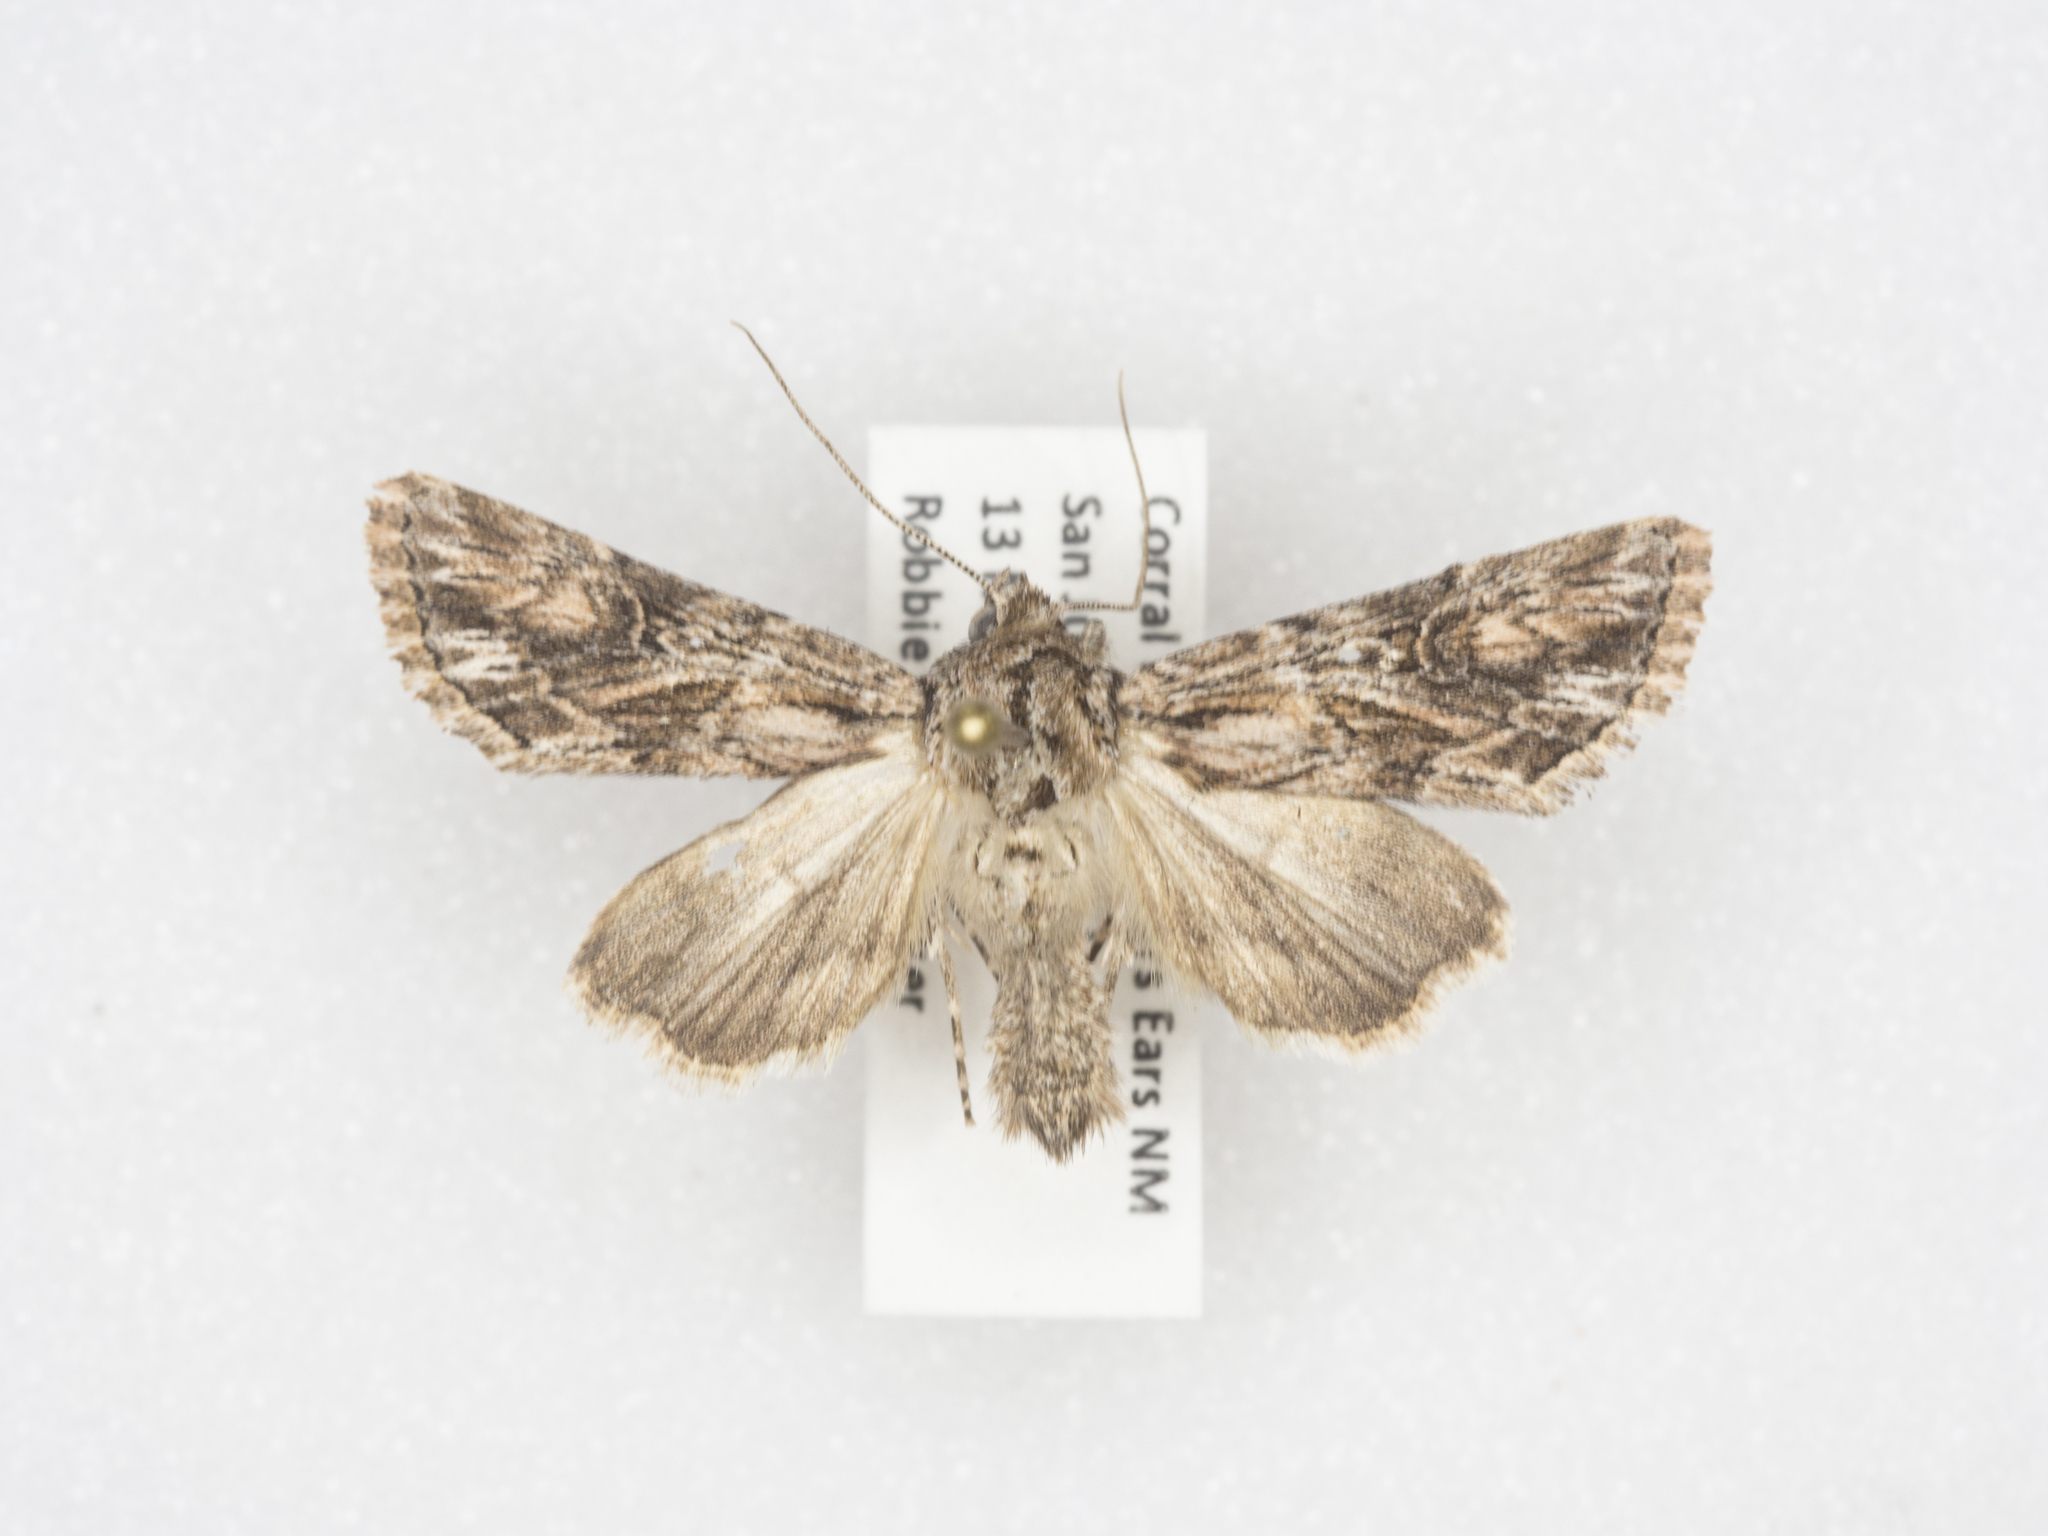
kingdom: Animalia
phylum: Arthropoda
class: Insecta
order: Lepidoptera
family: Noctuidae
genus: Aseptis
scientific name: Aseptis harpi
